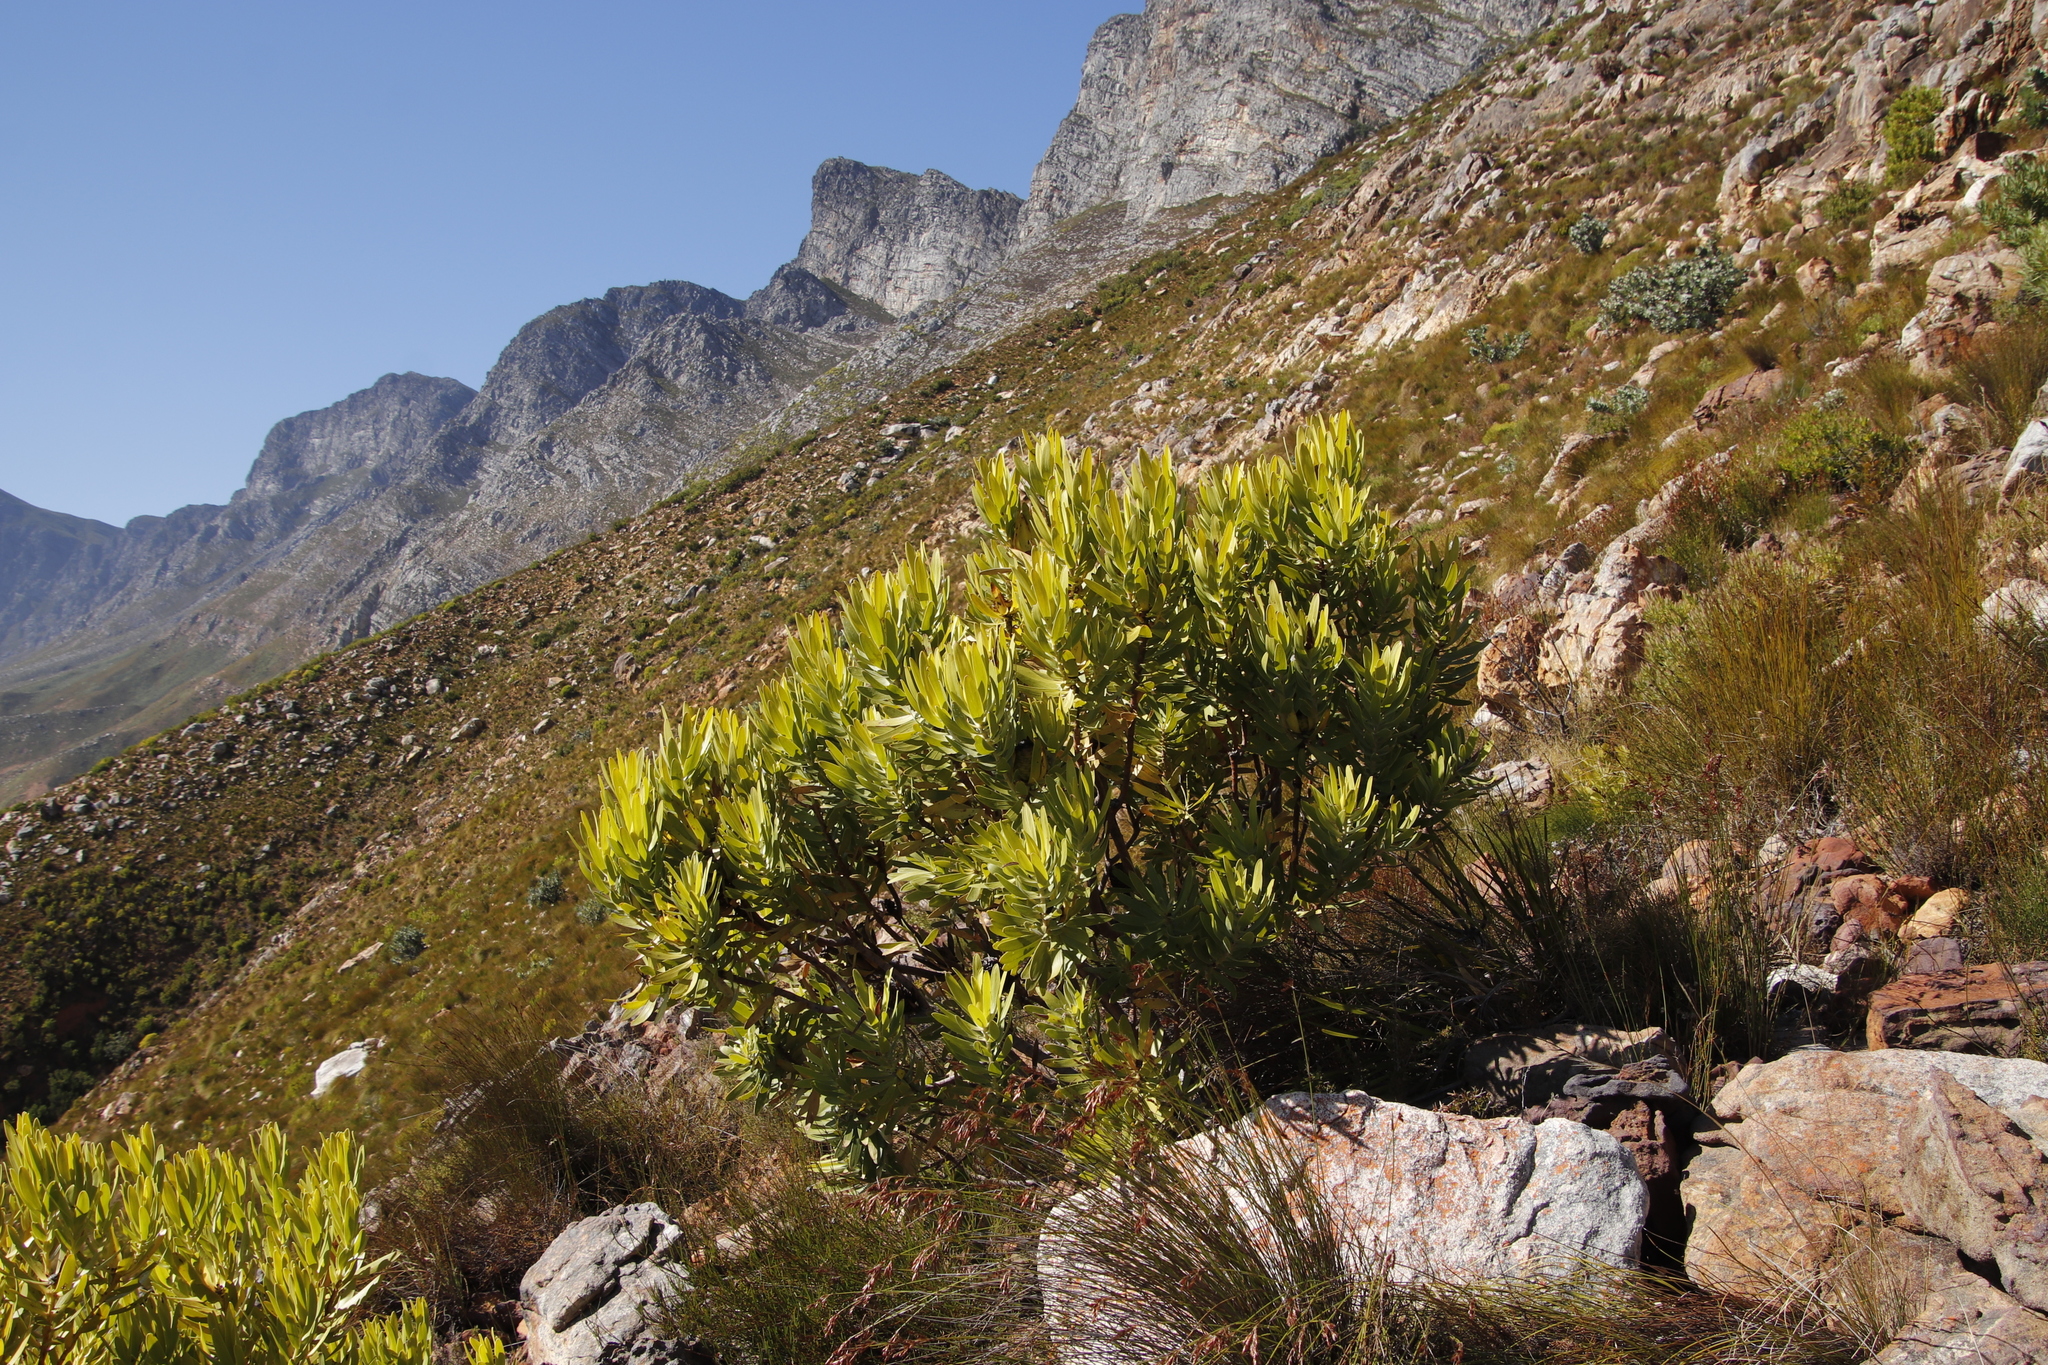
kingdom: Plantae
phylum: Tracheophyta
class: Magnoliopsida
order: Proteales
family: Proteaceae
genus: Leucadendron
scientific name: Leucadendron laureolum
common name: Golden sunshinebush
